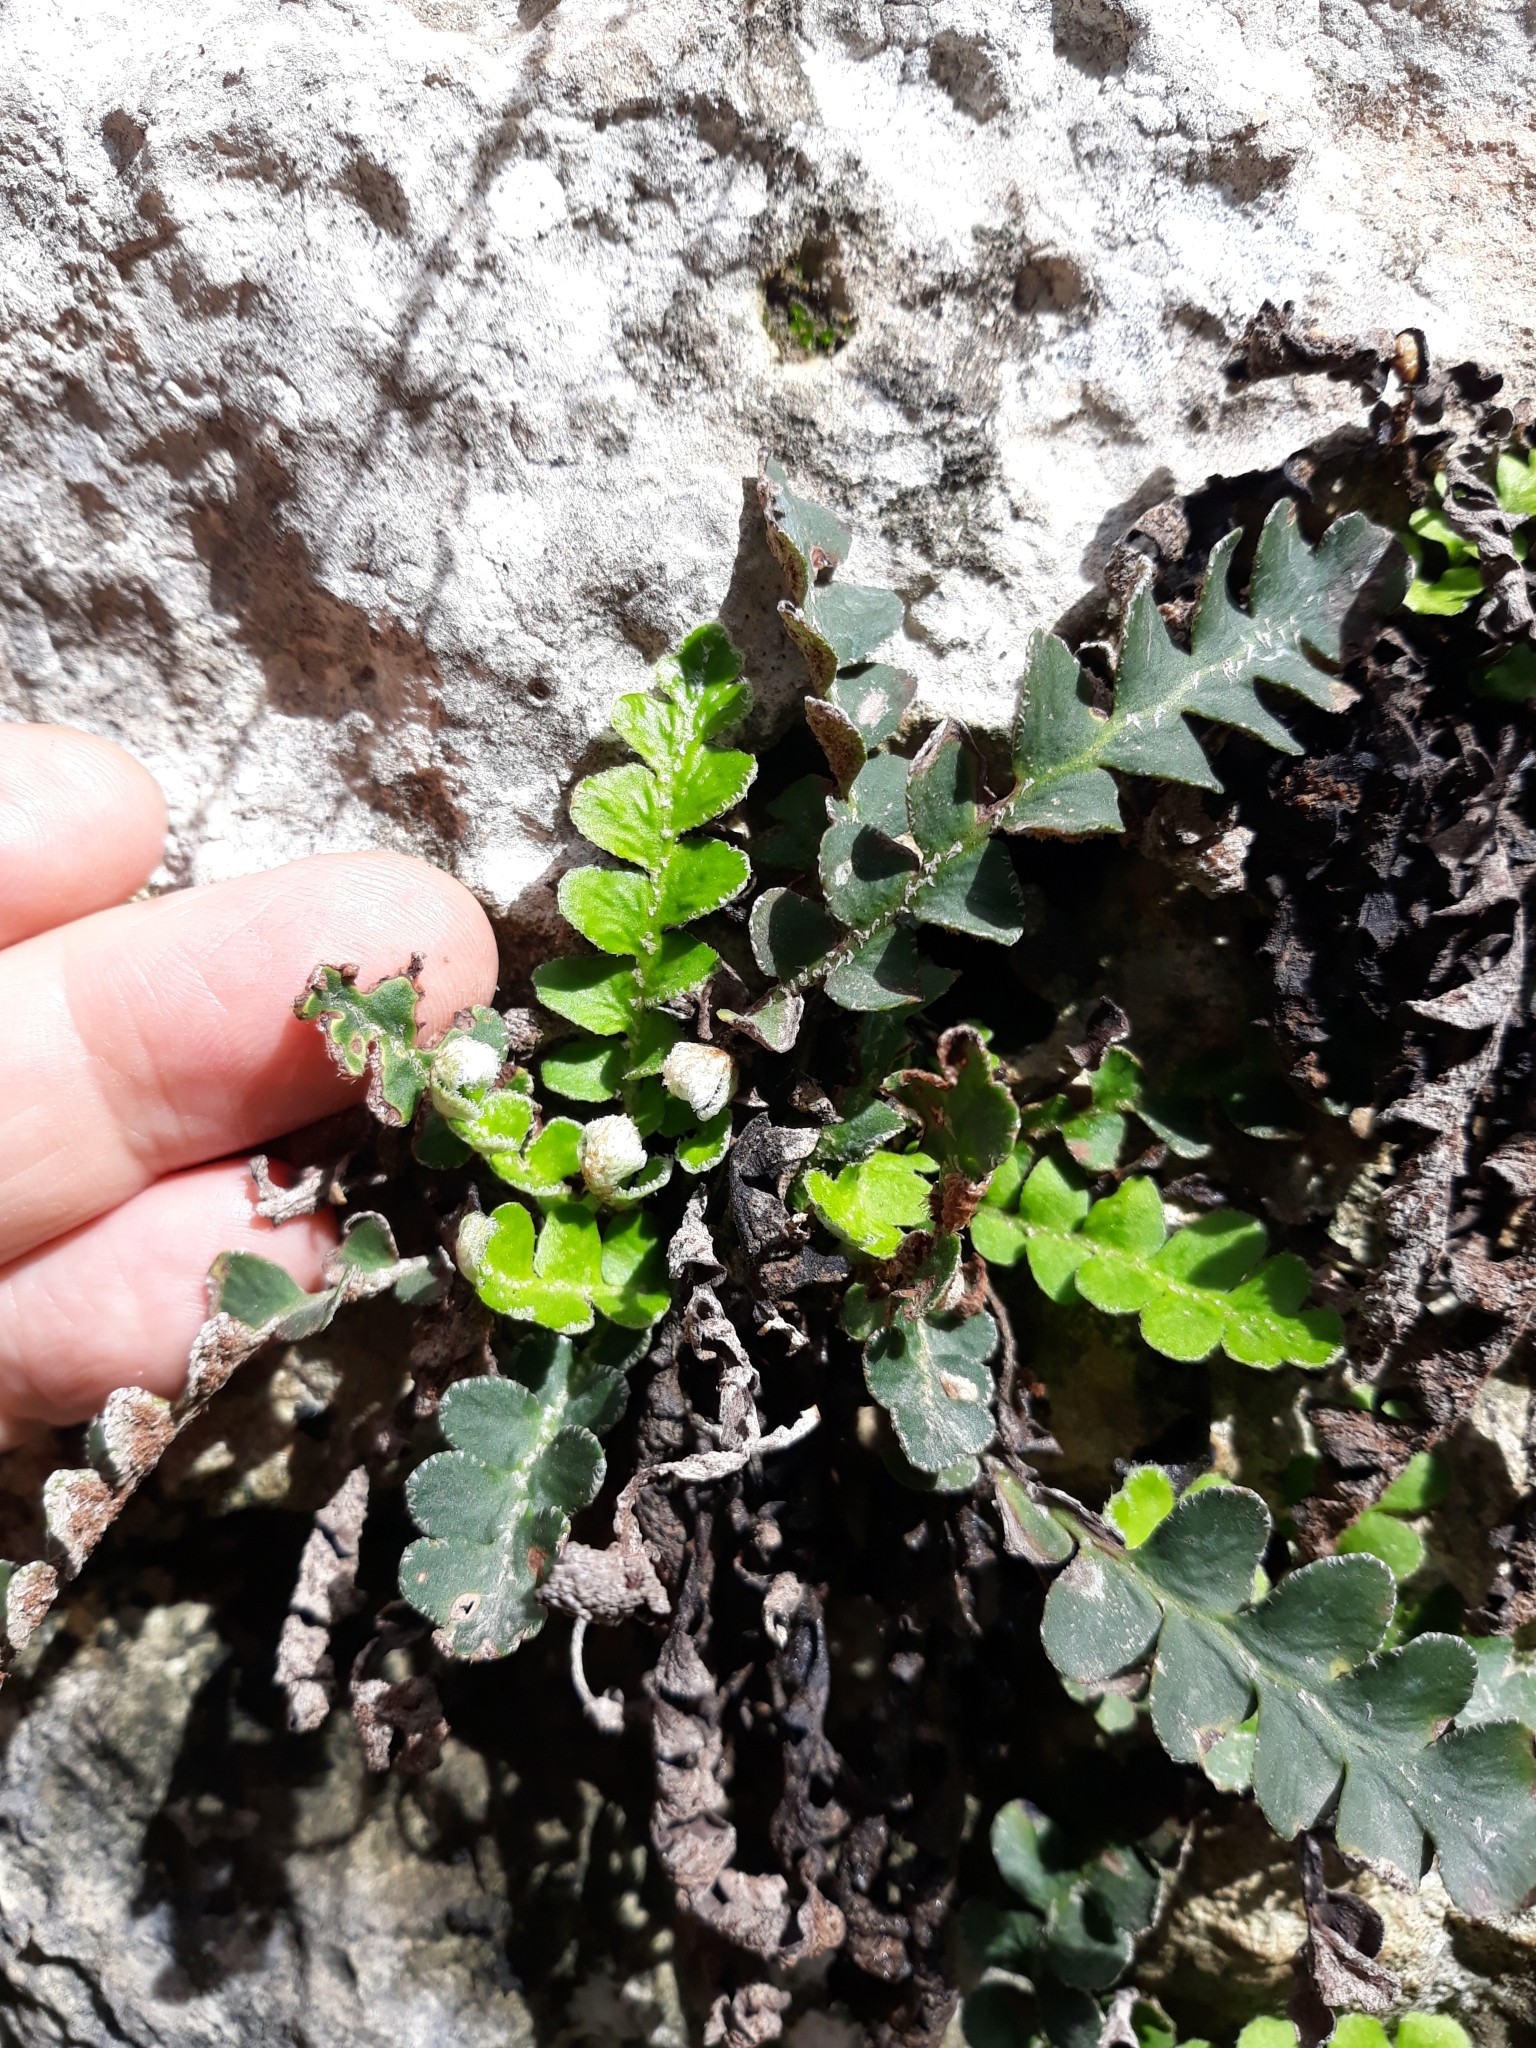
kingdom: Plantae
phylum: Tracheophyta
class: Polypodiopsida
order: Polypodiales
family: Aspleniaceae
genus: Asplenium
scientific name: Asplenium ceterach
